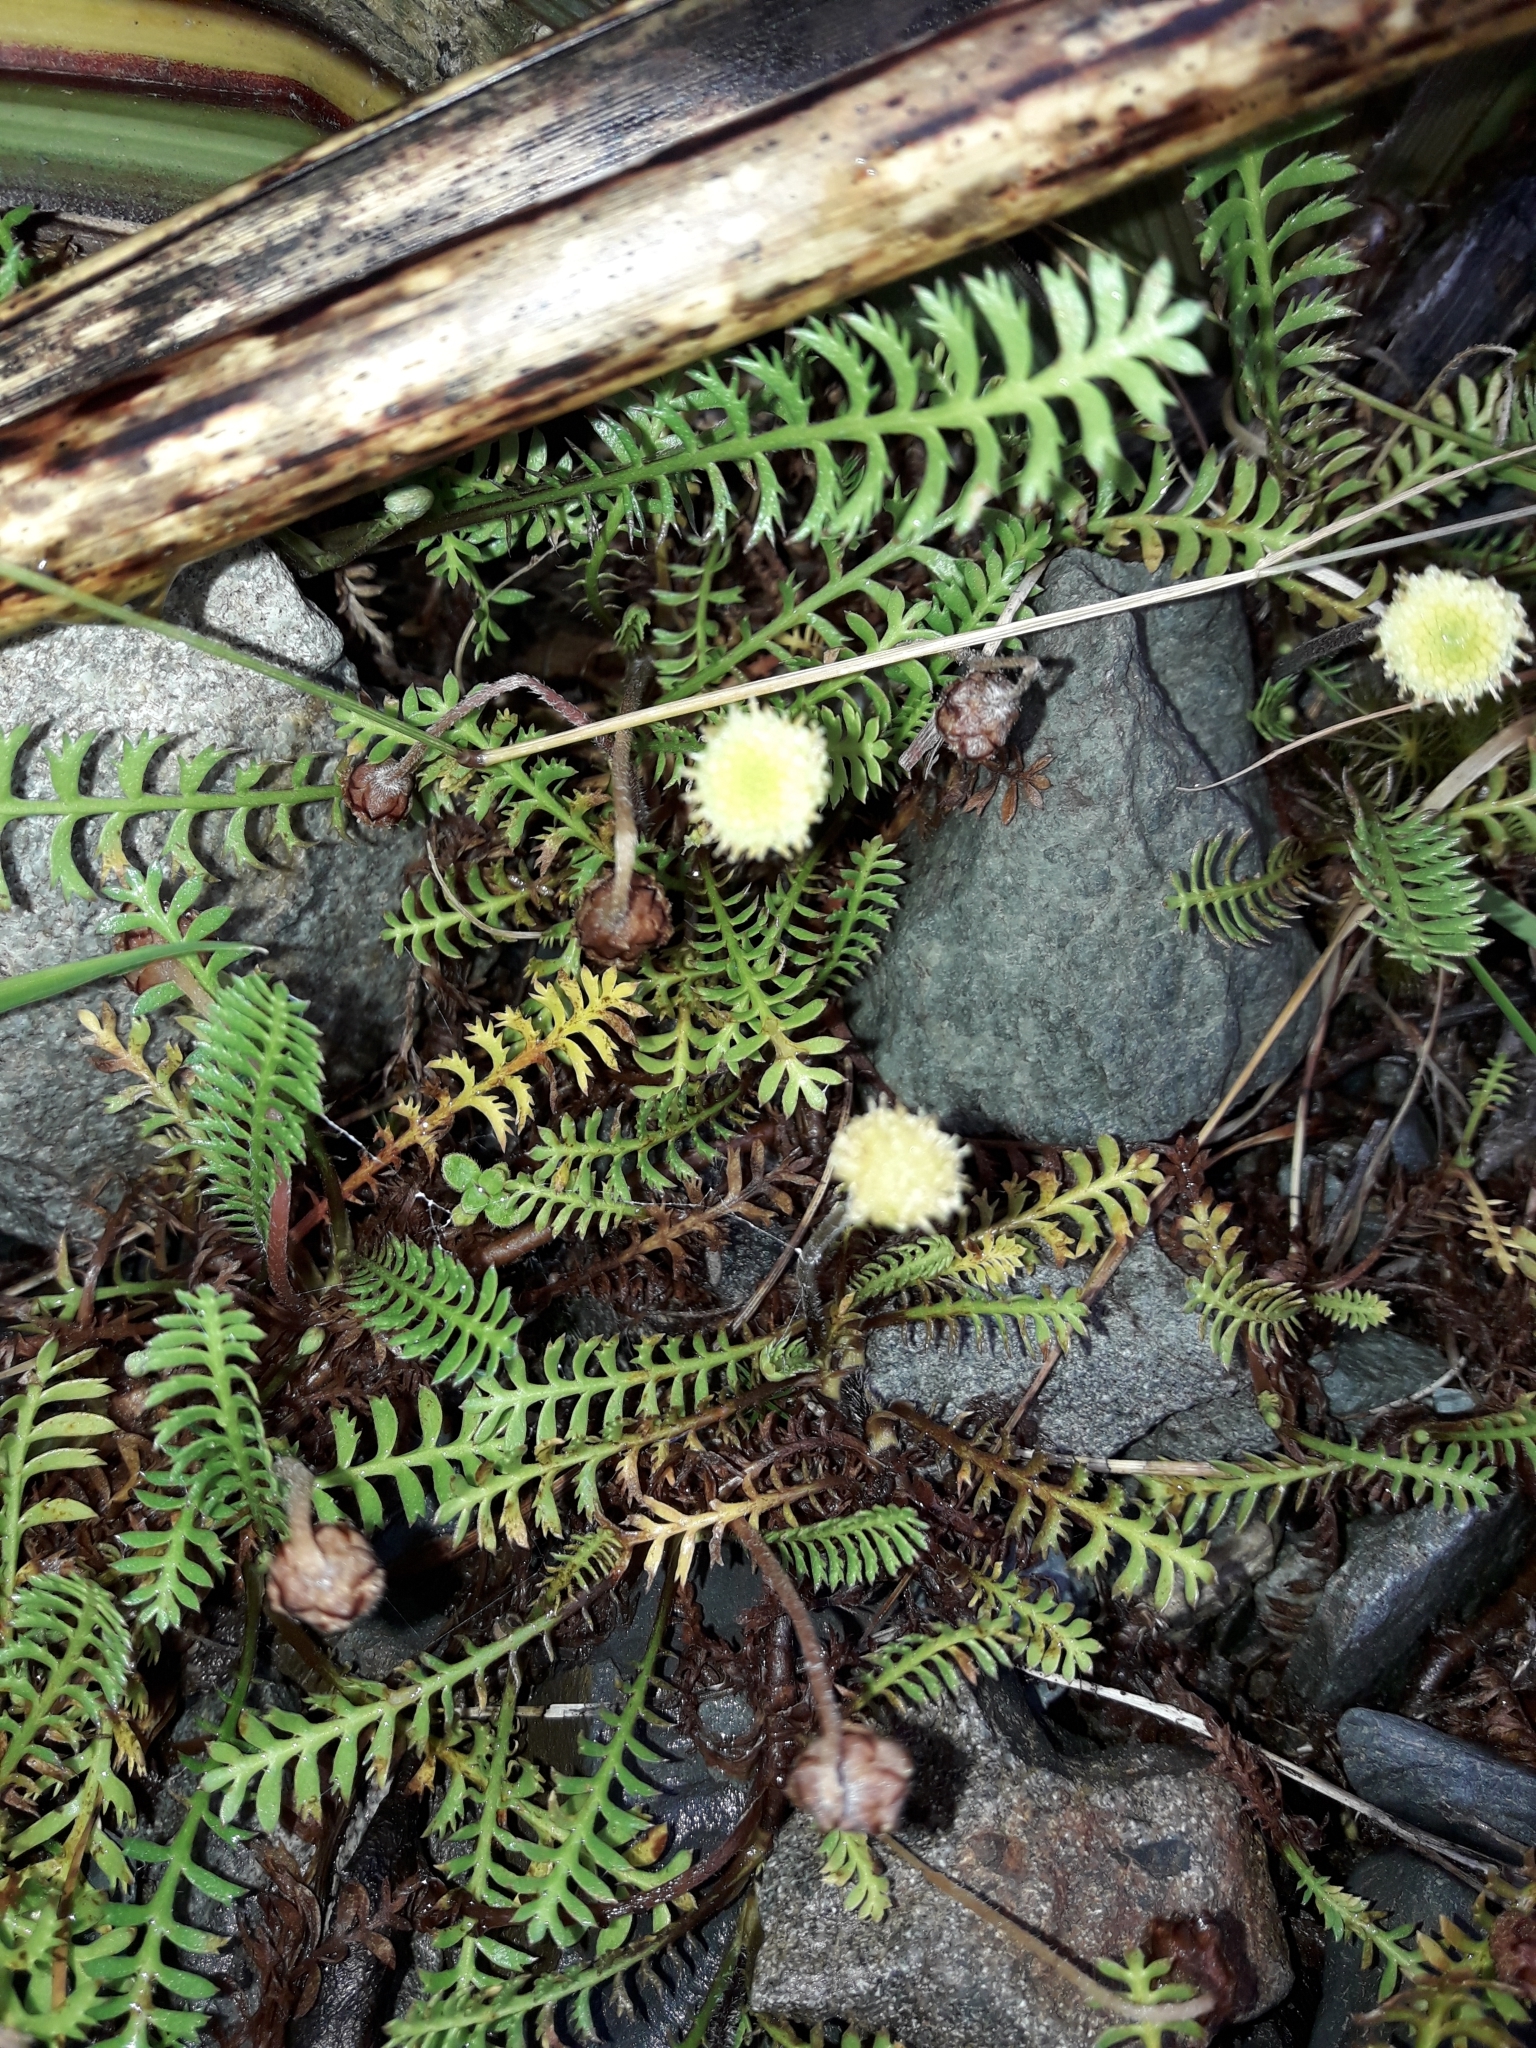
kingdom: Plantae
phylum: Tracheophyta
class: Magnoliopsida
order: Asterales
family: Asteraceae
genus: Leptinella
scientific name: Leptinella squalida
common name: New zealand brass-buttons
